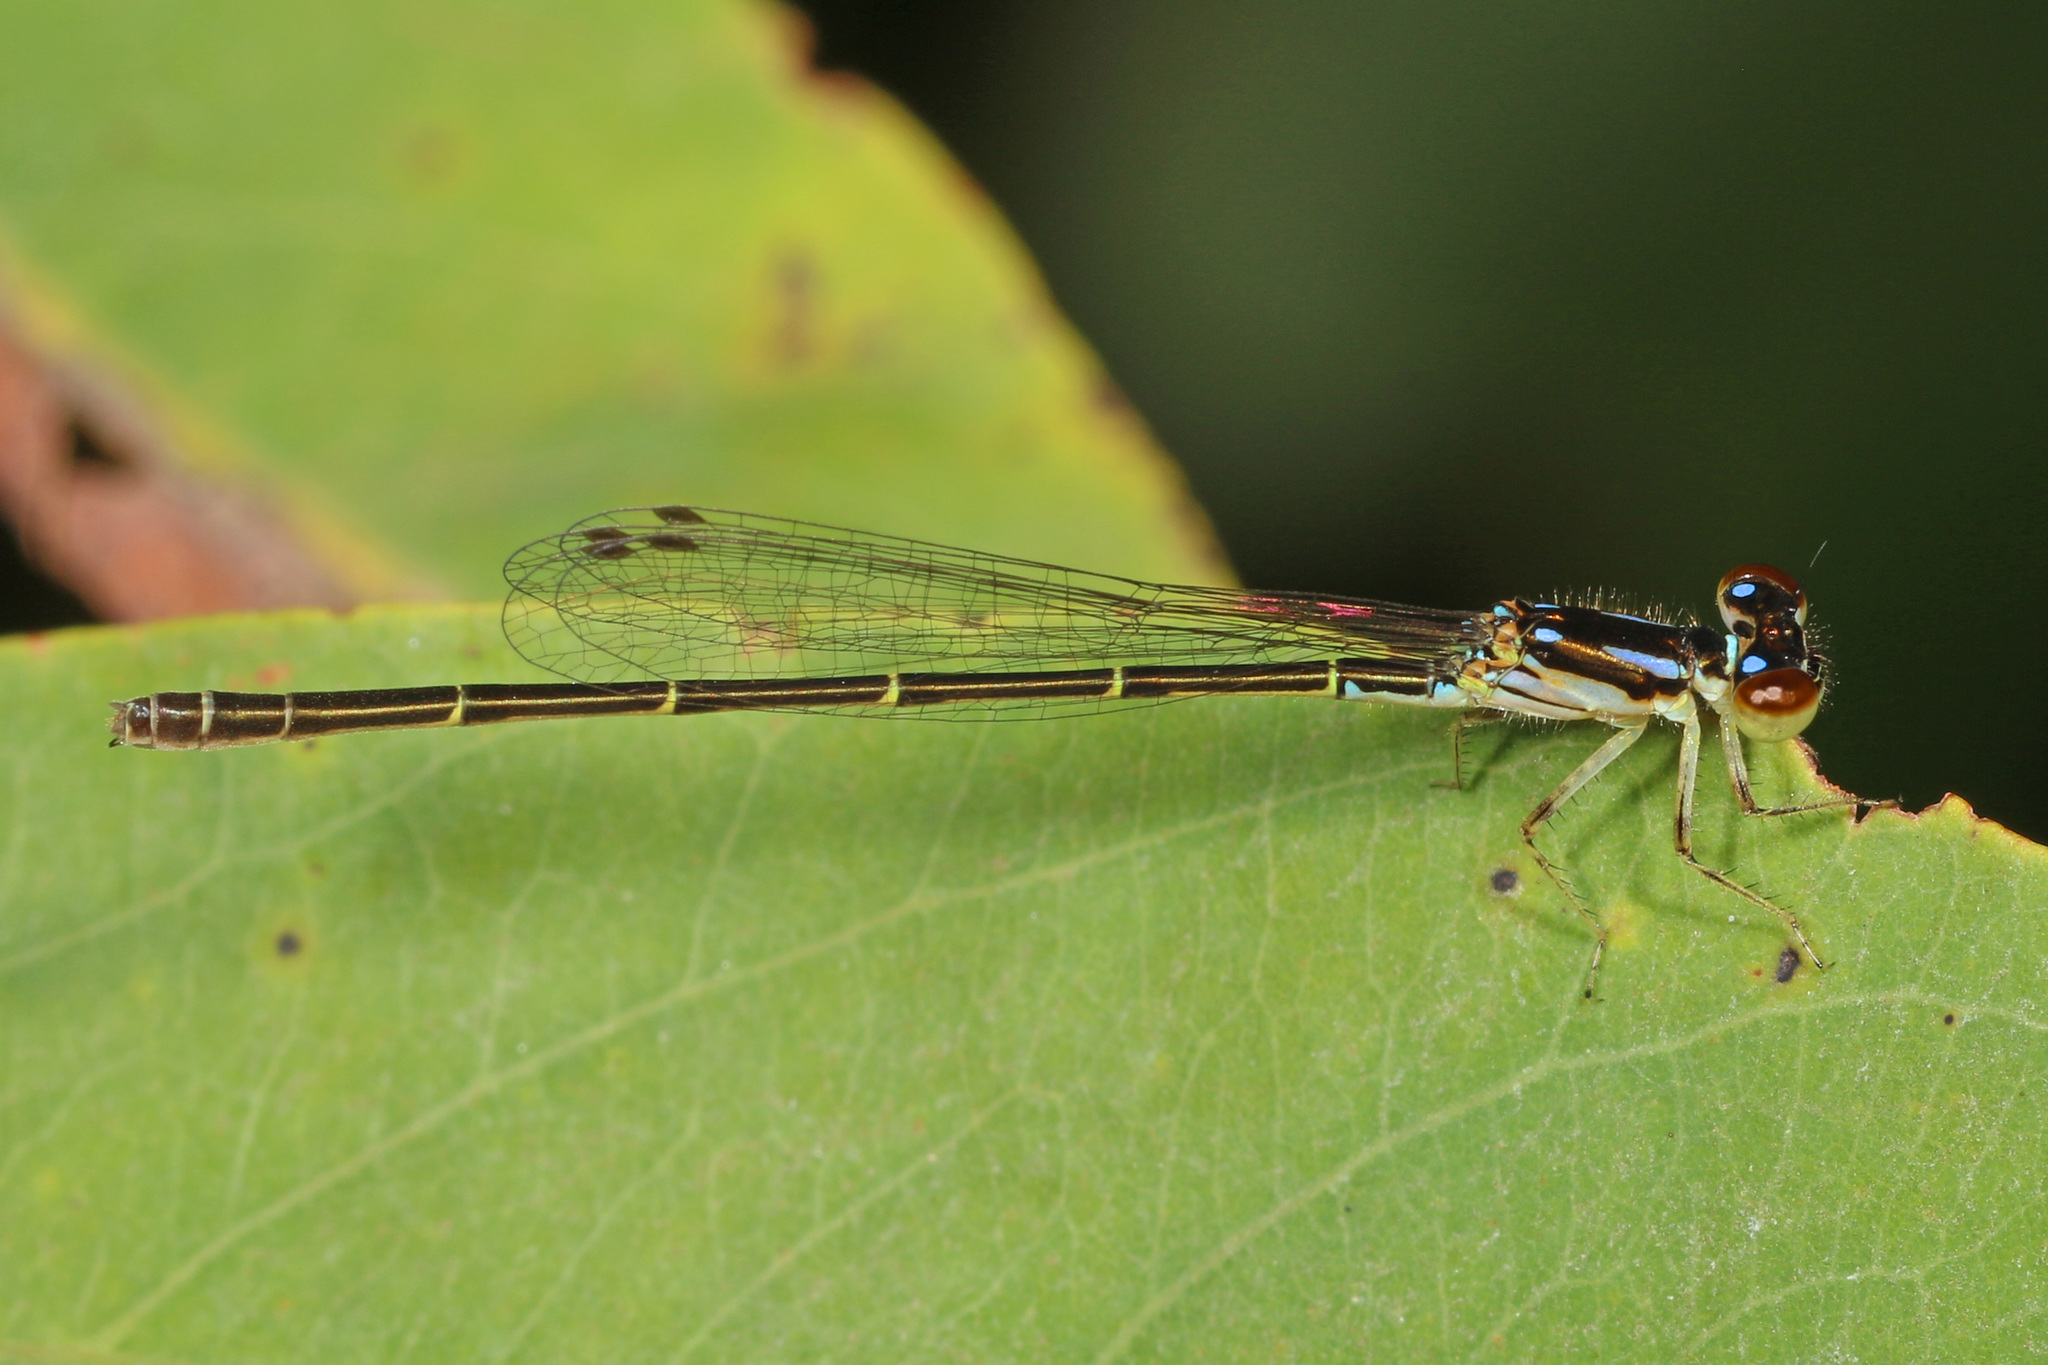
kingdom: Animalia
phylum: Arthropoda
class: Insecta
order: Odonata
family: Coenagrionidae
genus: Ischnura
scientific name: Ischnura posita
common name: Fragile forktail
